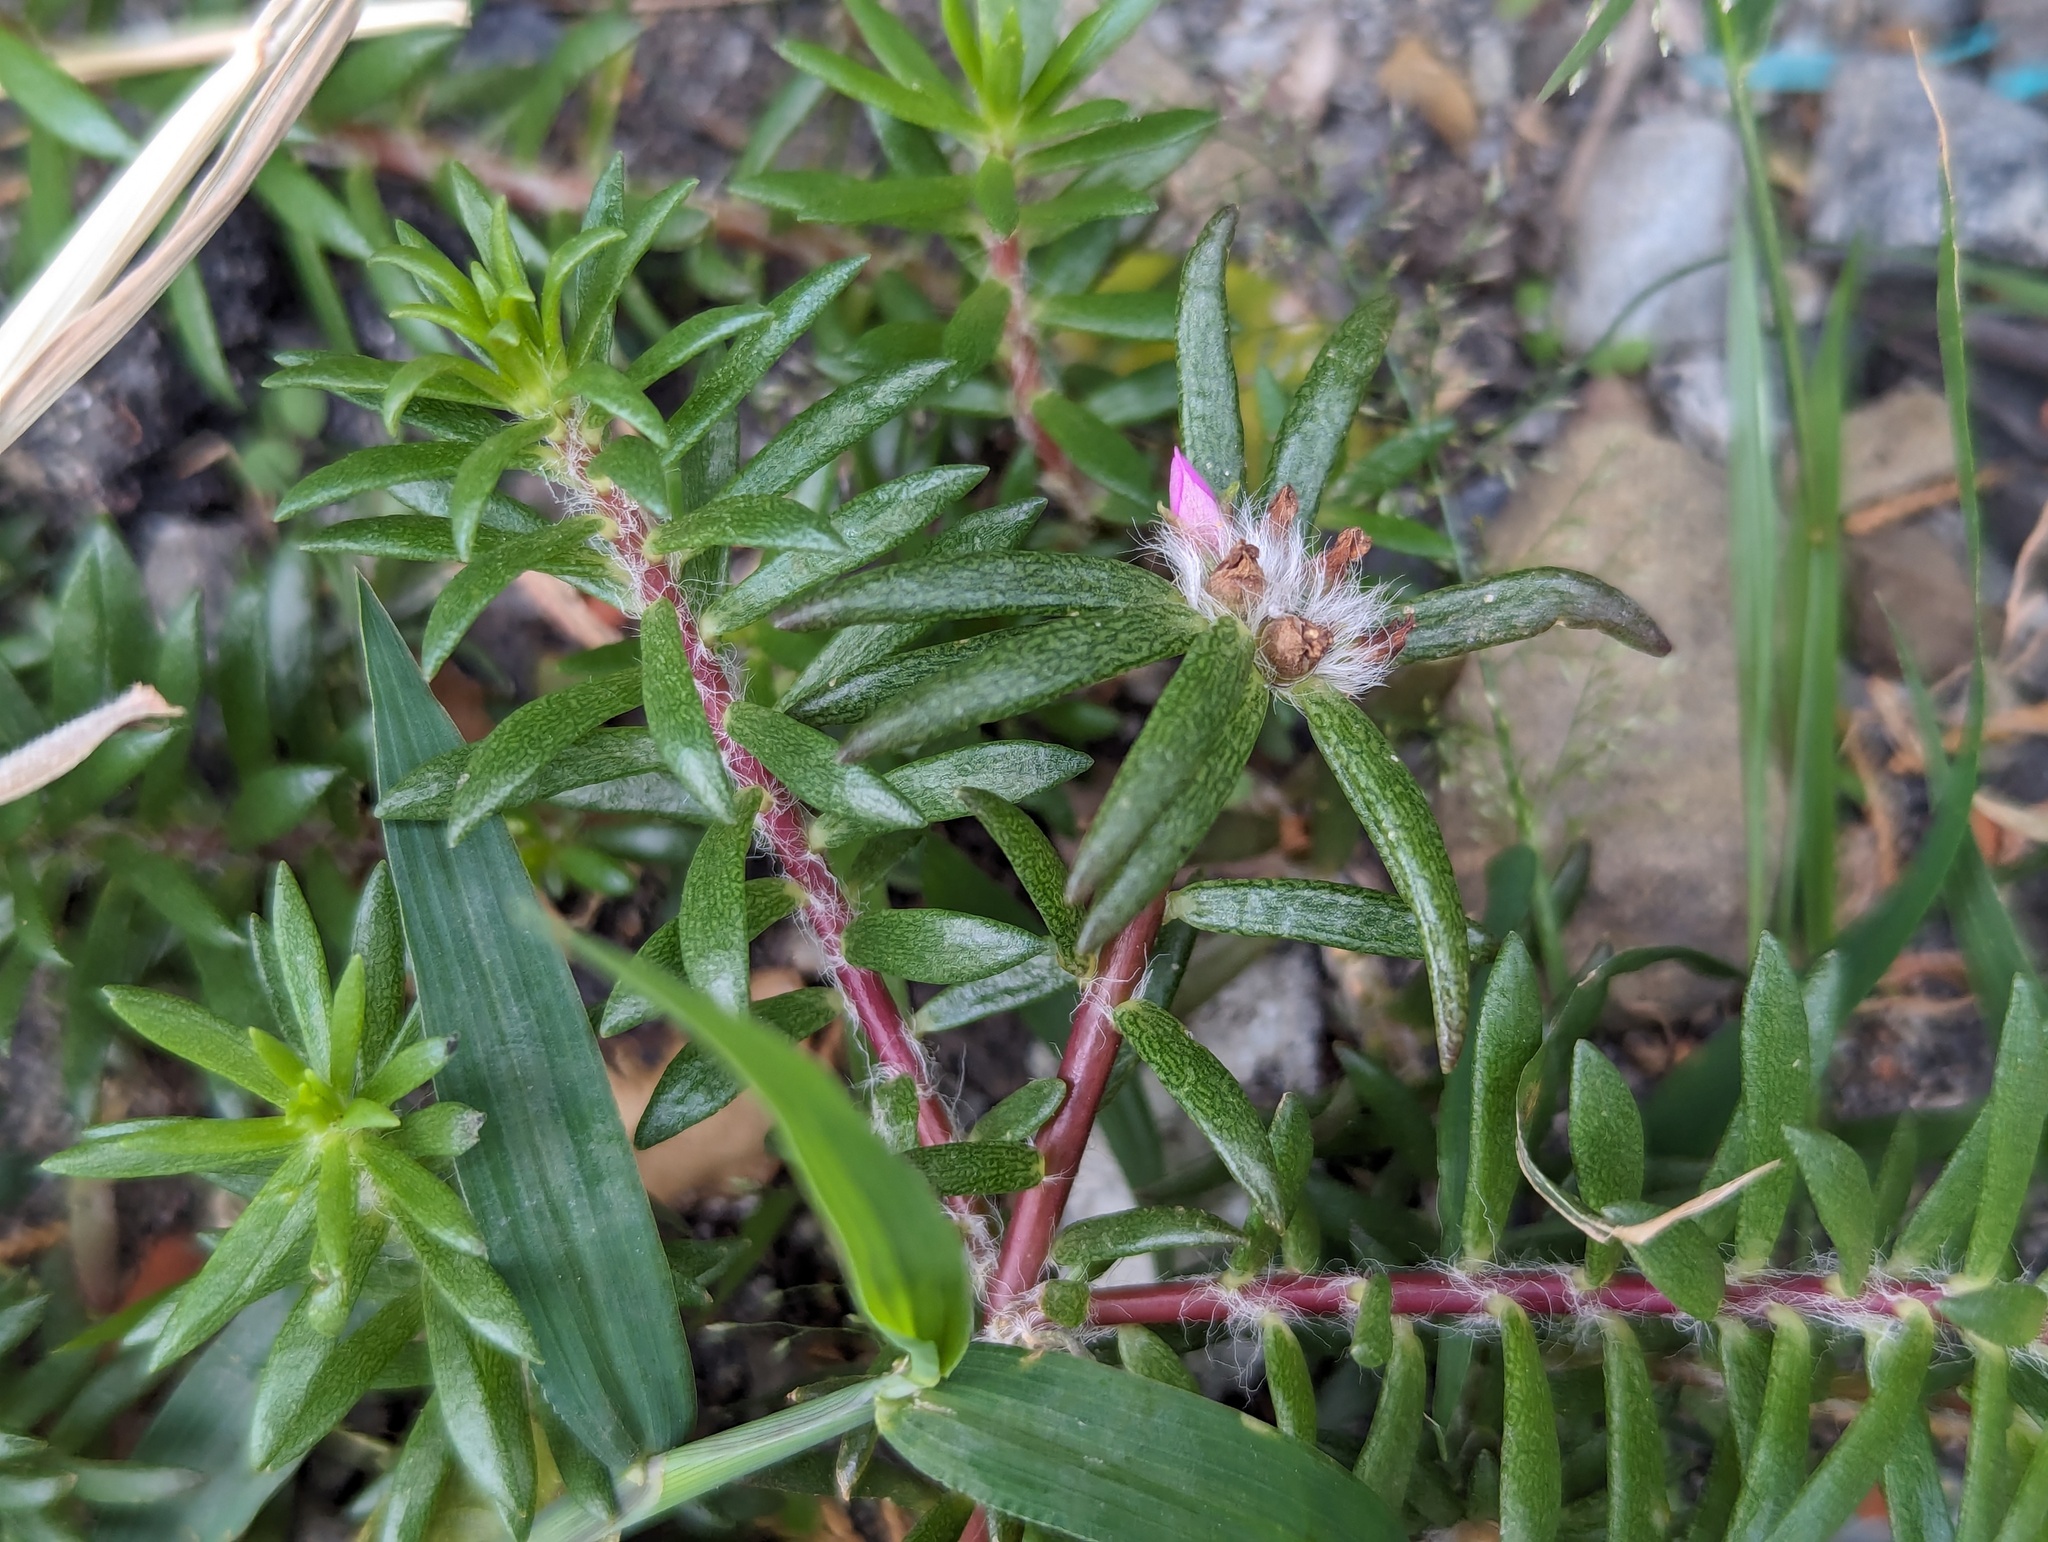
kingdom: Plantae
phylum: Tracheophyta
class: Magnoliopsida
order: Caryophyllales
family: Portulacaceae
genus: Portulaca
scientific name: Portulaca pilosa
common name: Kiss me quick
